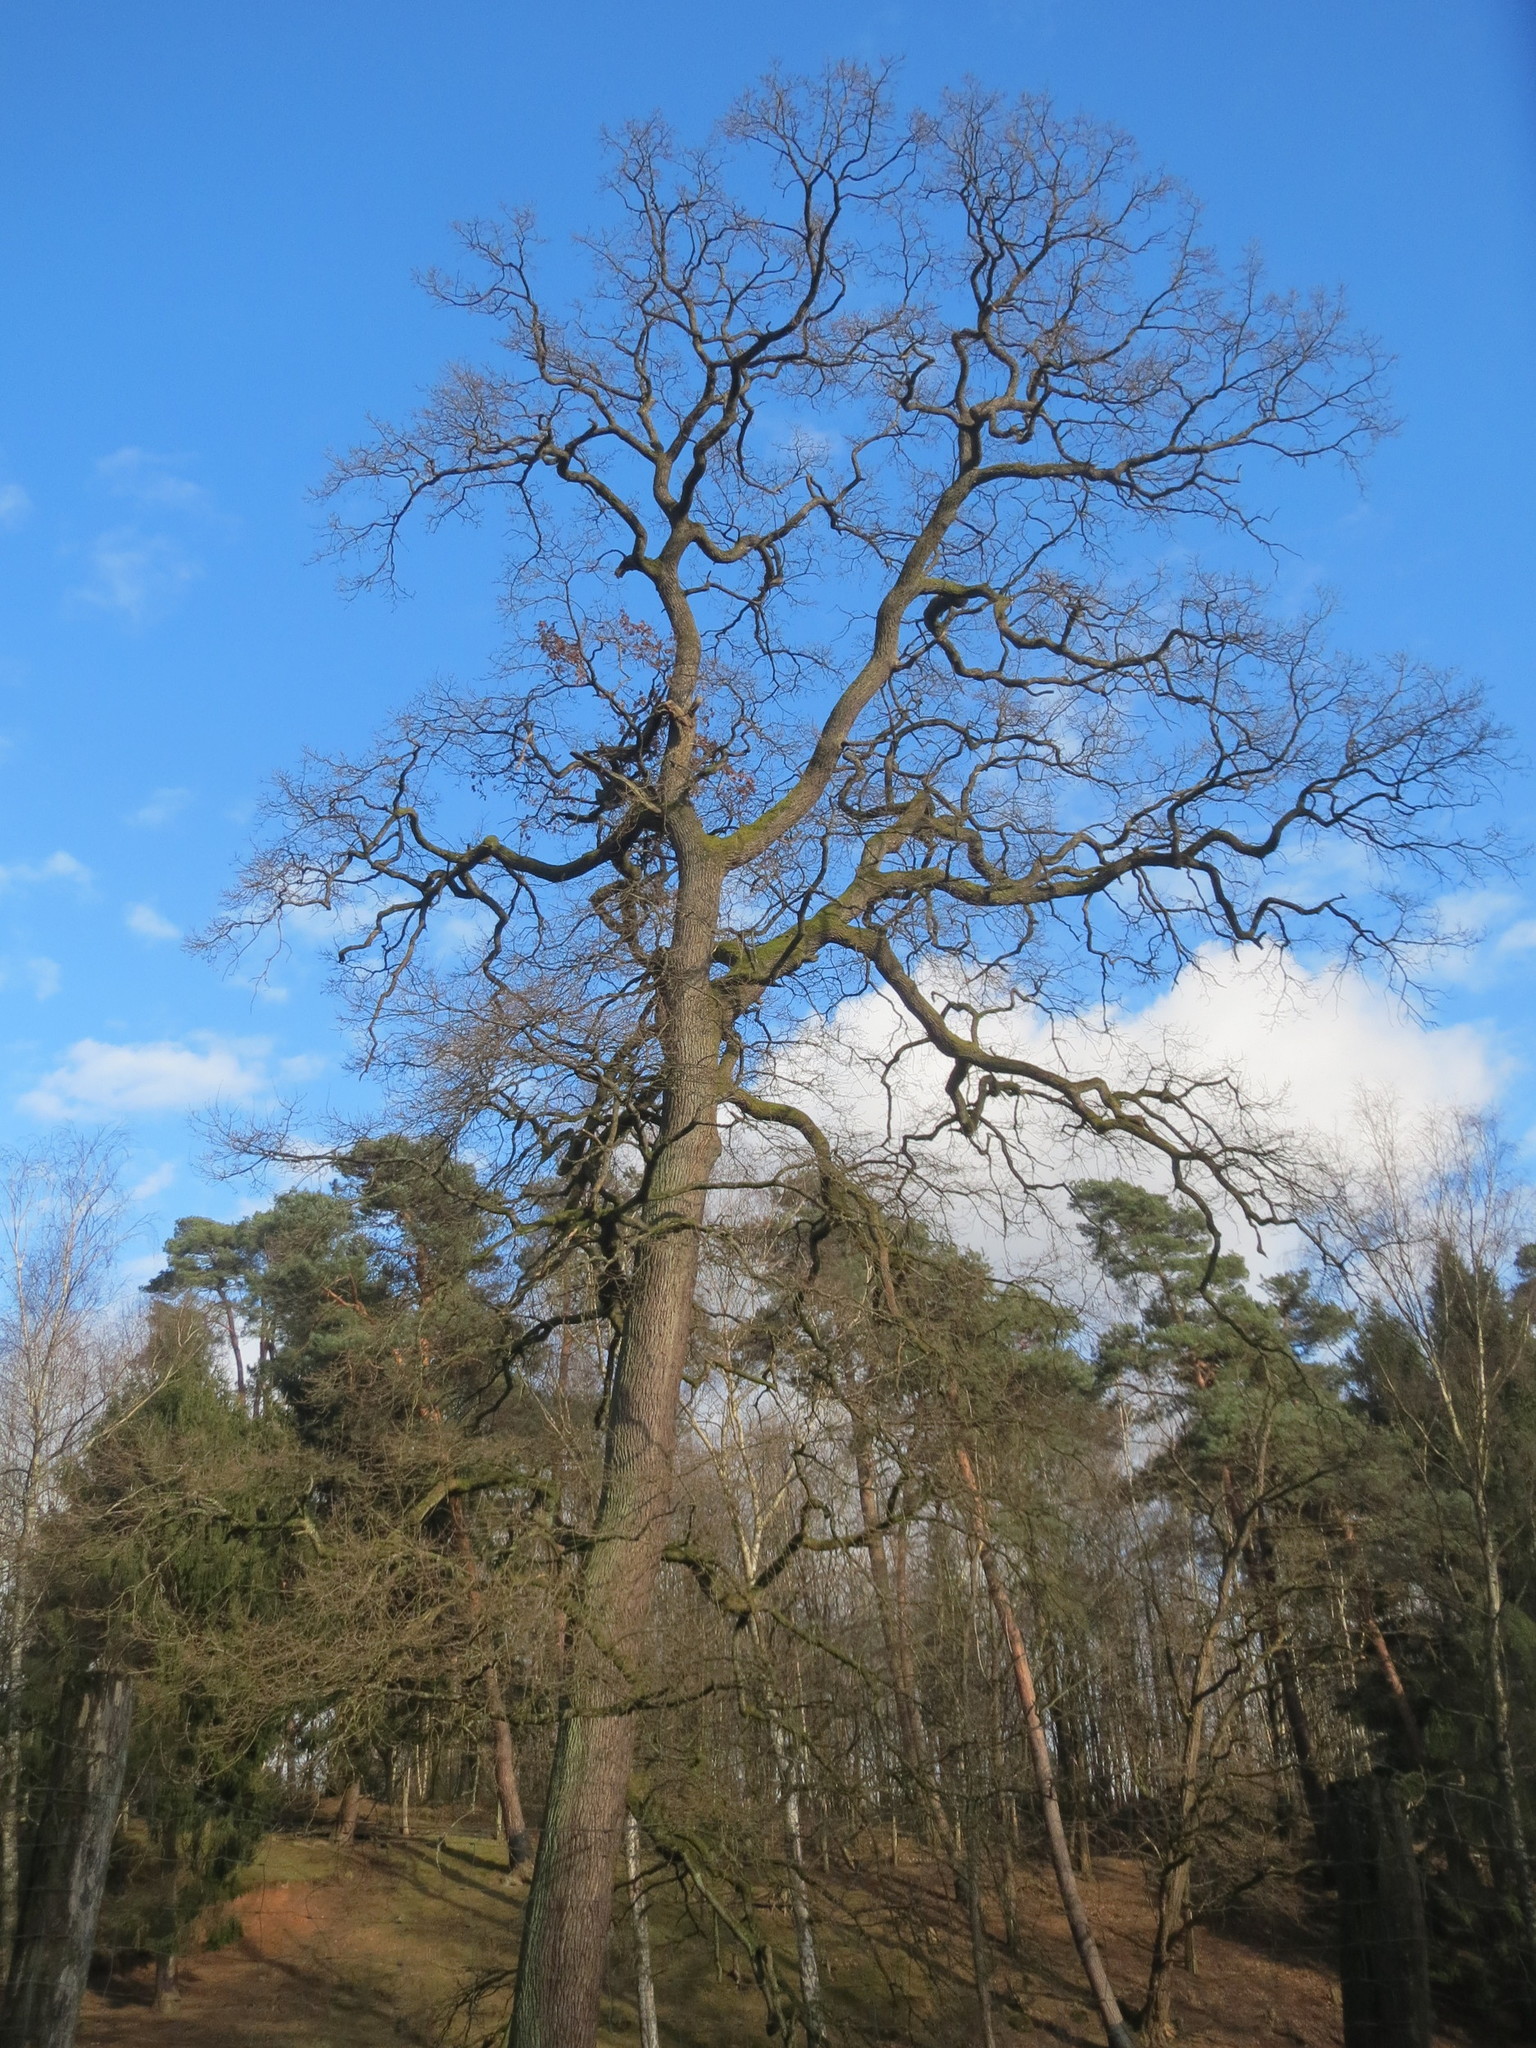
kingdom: Plantae
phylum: Tracheophyta
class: Magnoliopsida
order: Fagales
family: Fagaceae
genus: Quercus
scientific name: Quercus robur
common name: Pedunculate oak
